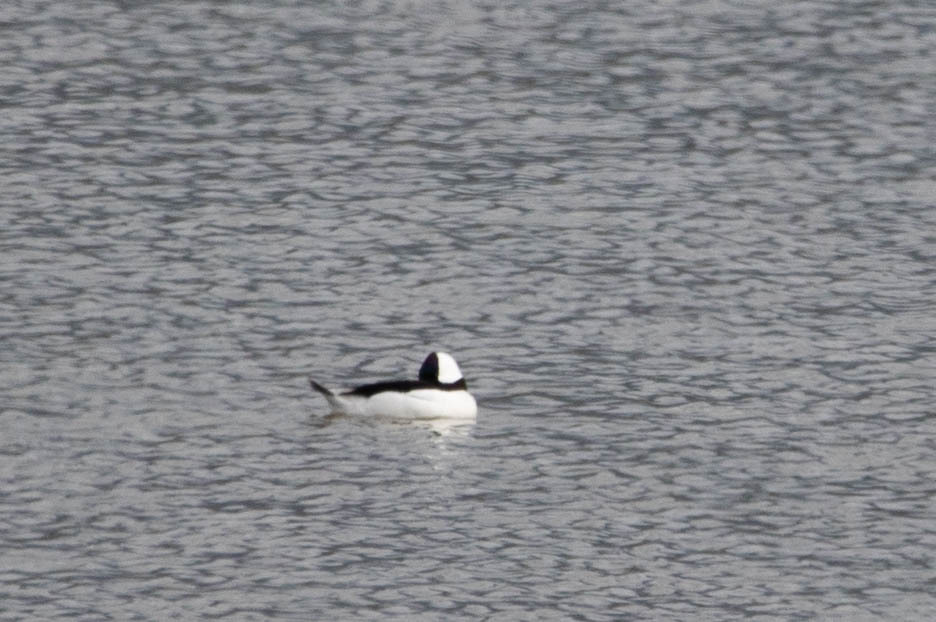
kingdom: Animalia
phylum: Chordata
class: Aves
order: Anseriformes
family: Anatidae
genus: Bucephala
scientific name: Bucephala albeola
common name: Bufflehead
